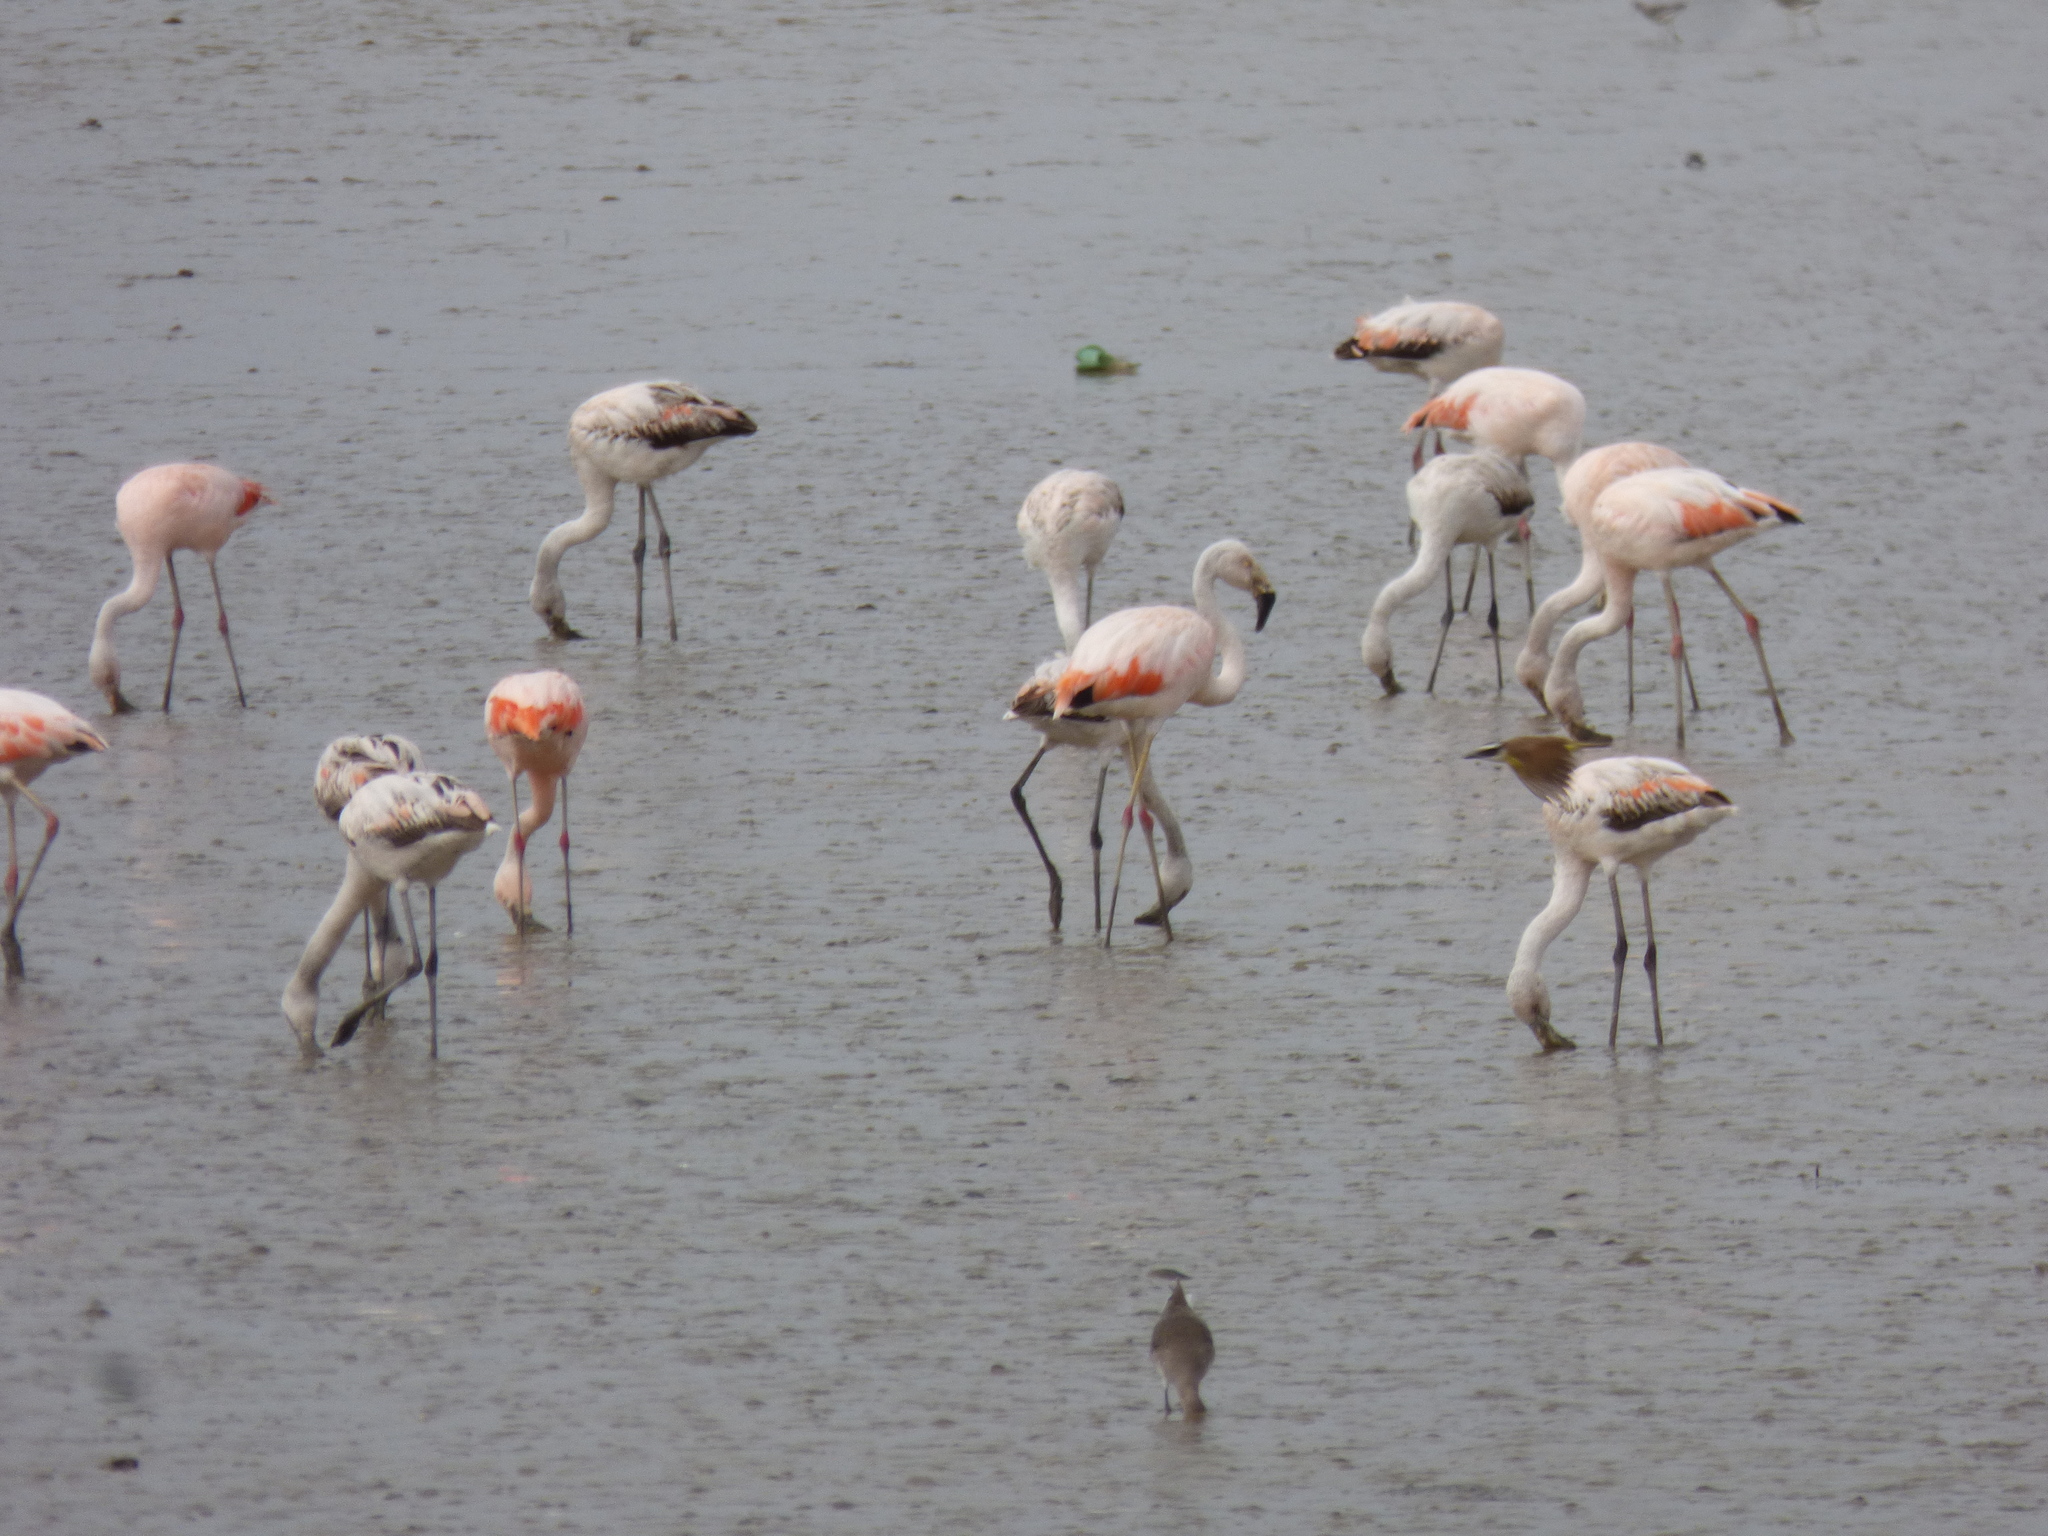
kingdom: Animalia
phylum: Chordata
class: Aves
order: Phoenicopteriformes
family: Phoenicopteridae
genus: Phoenicopterus
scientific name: Phoenicopterus chilensis
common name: Chilean flamingo
